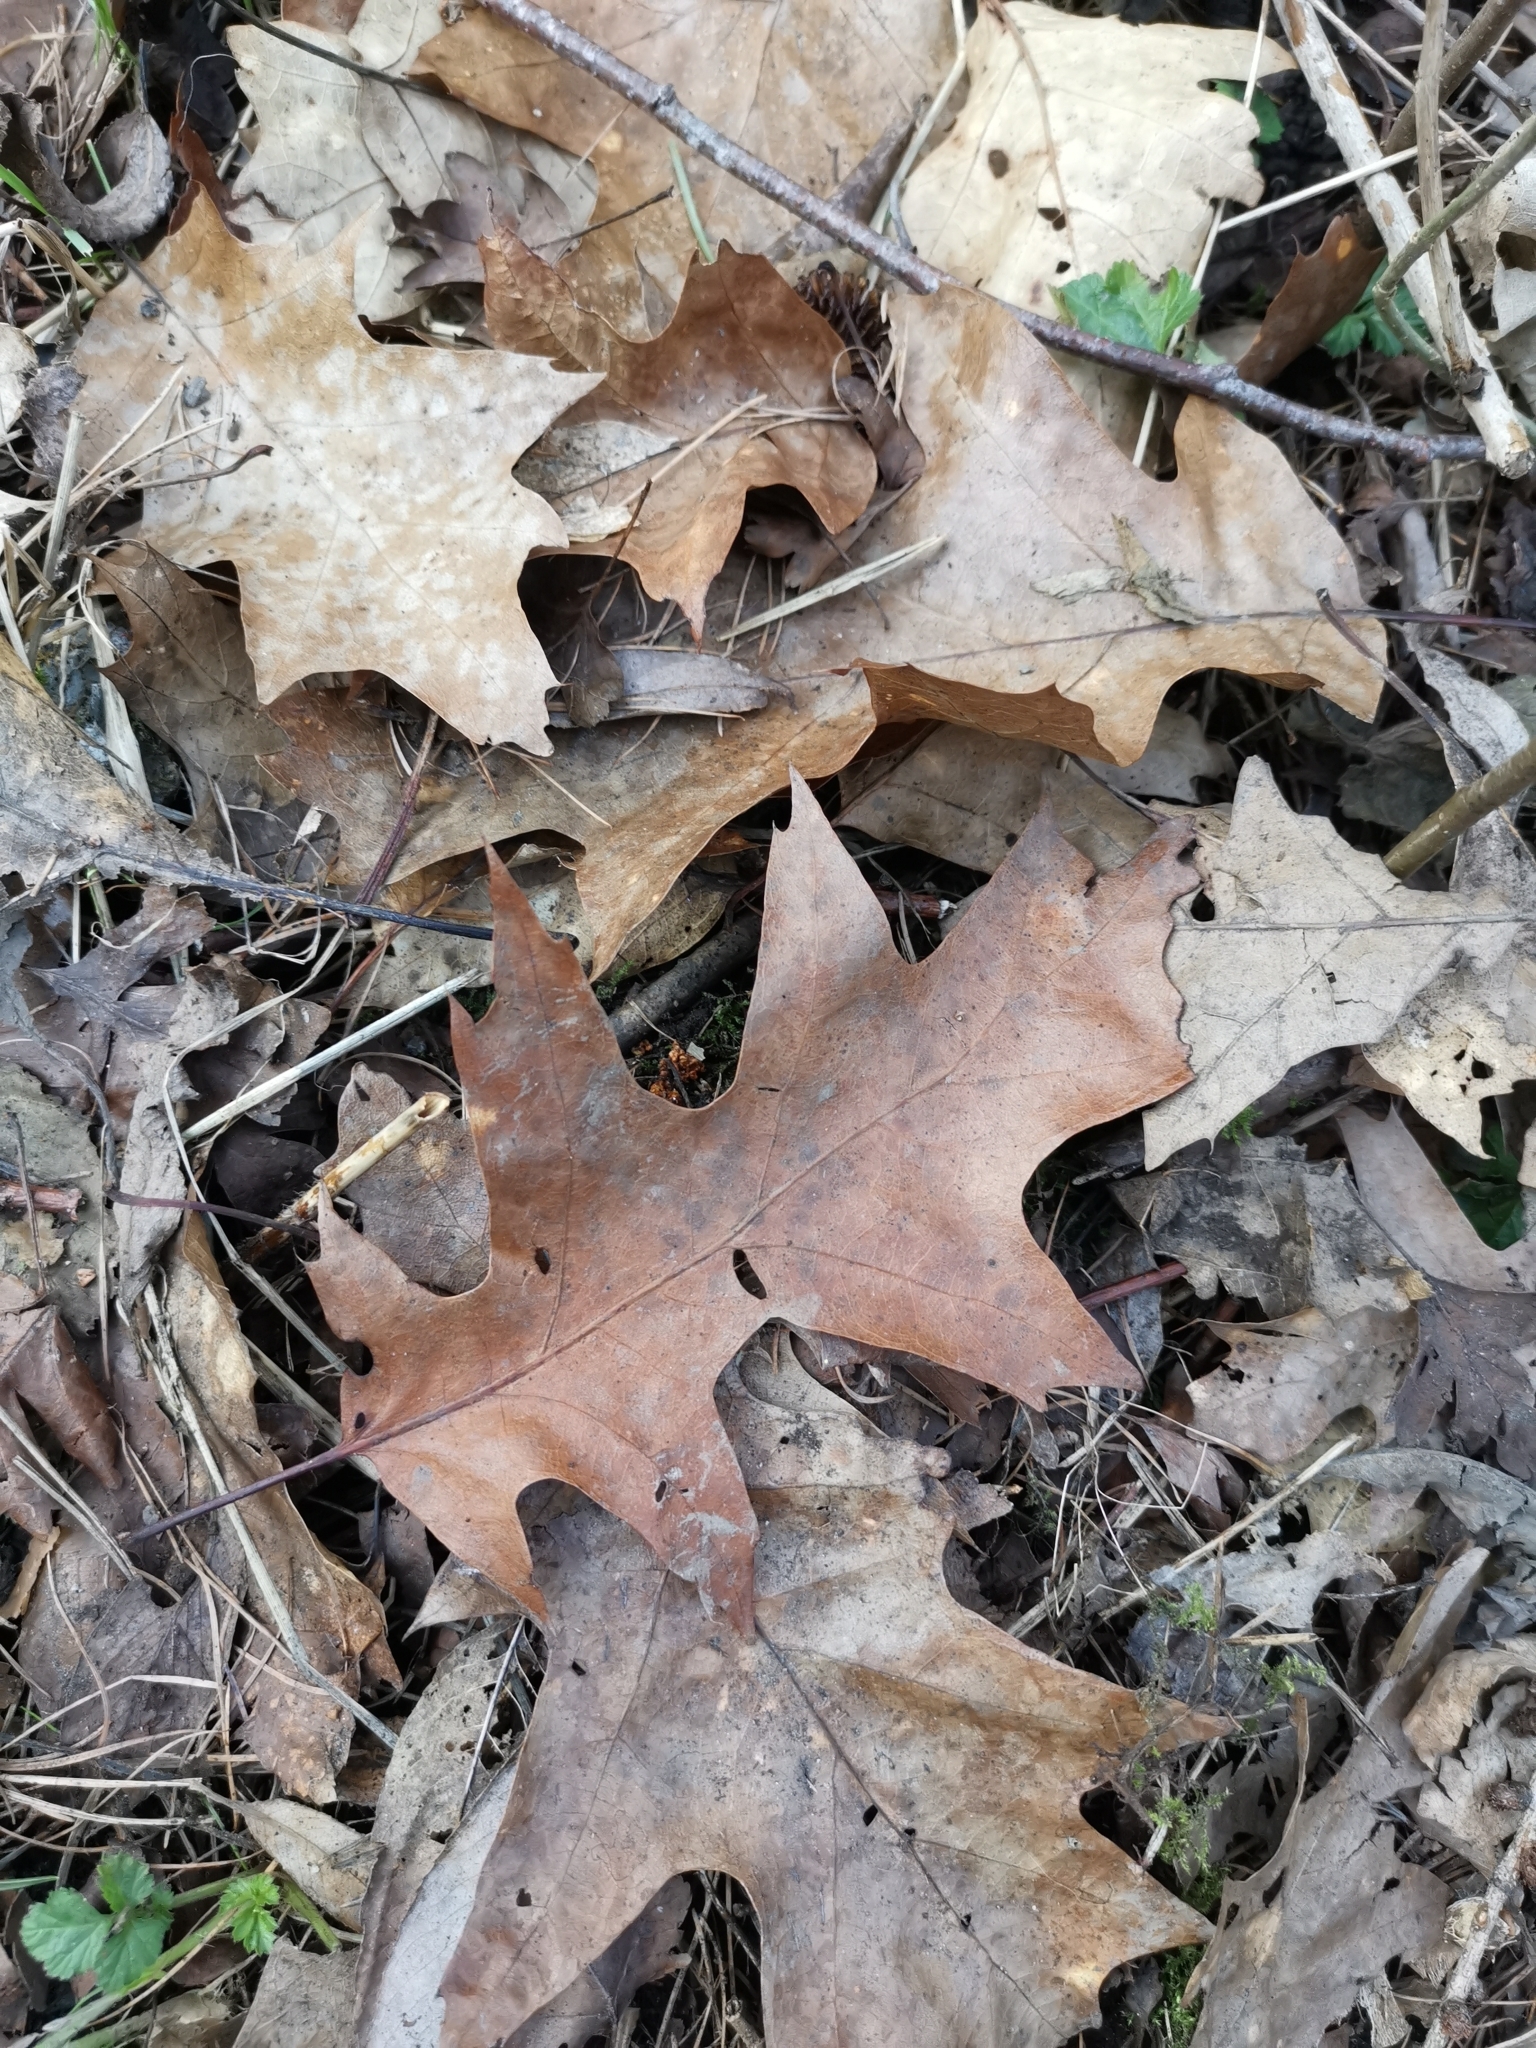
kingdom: Plantae
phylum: Tracheophyta
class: Magnoliopsida
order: Fagales
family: Fagaceae
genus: Quercus
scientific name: Quercus rubra
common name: Red oak
